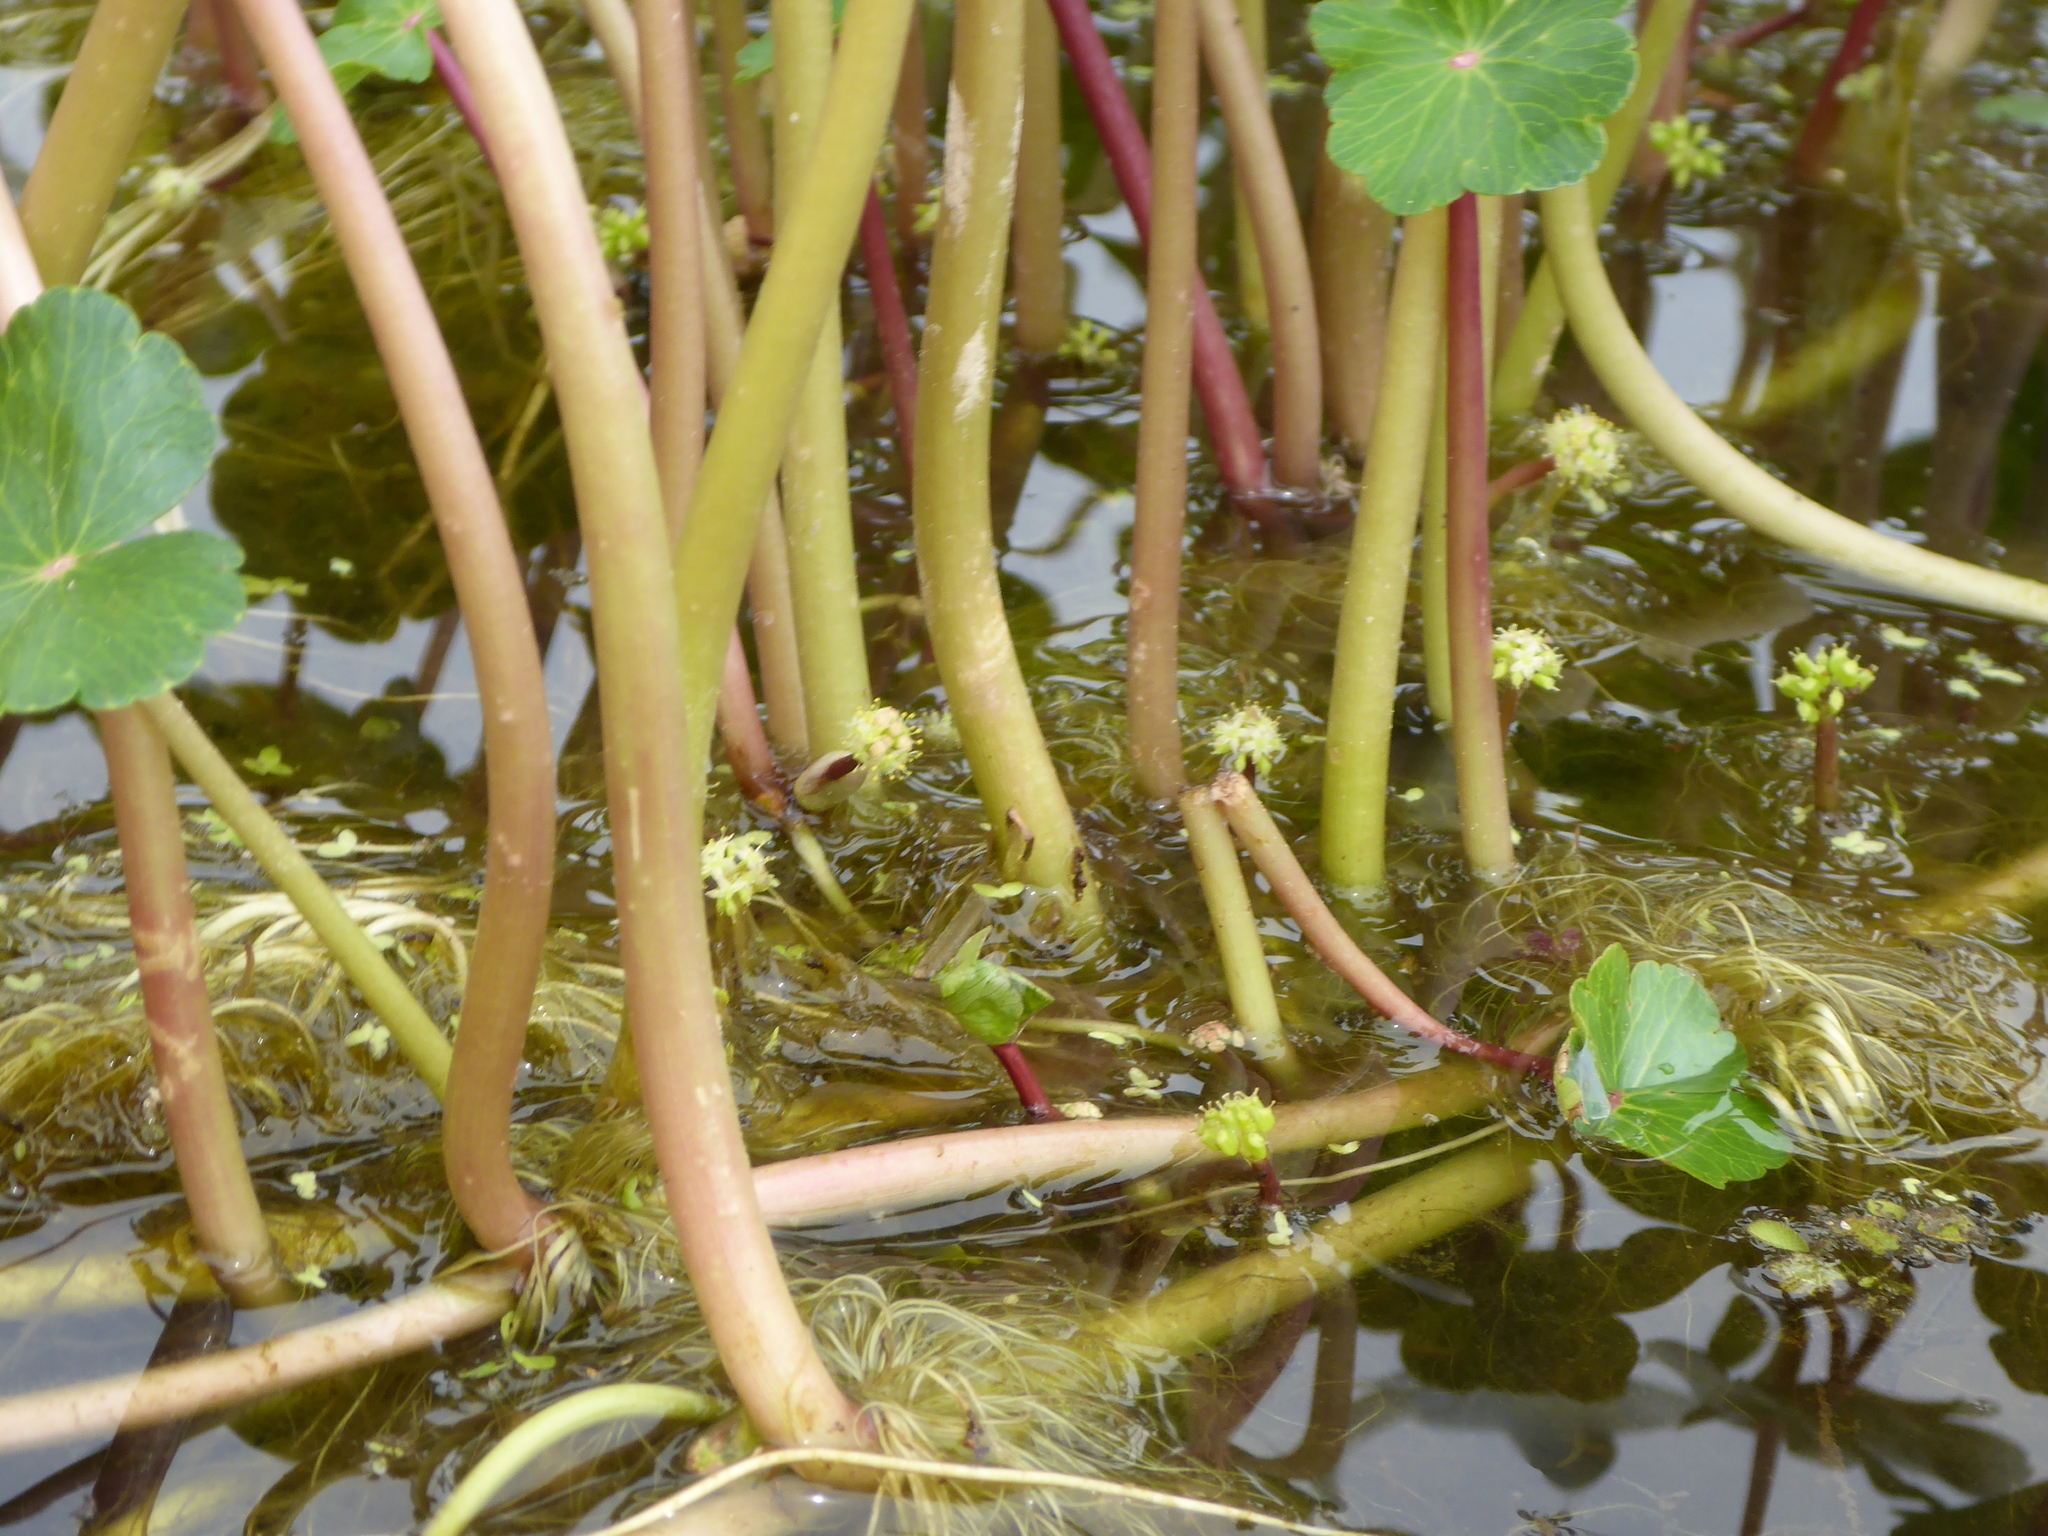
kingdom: Plantae
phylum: Tracheophyta
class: Magnoliopsida
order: Apiales
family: Araliaceae
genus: Hydrocotyle
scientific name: Hydrocotyle ranunculoides
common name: Floating pennywort
